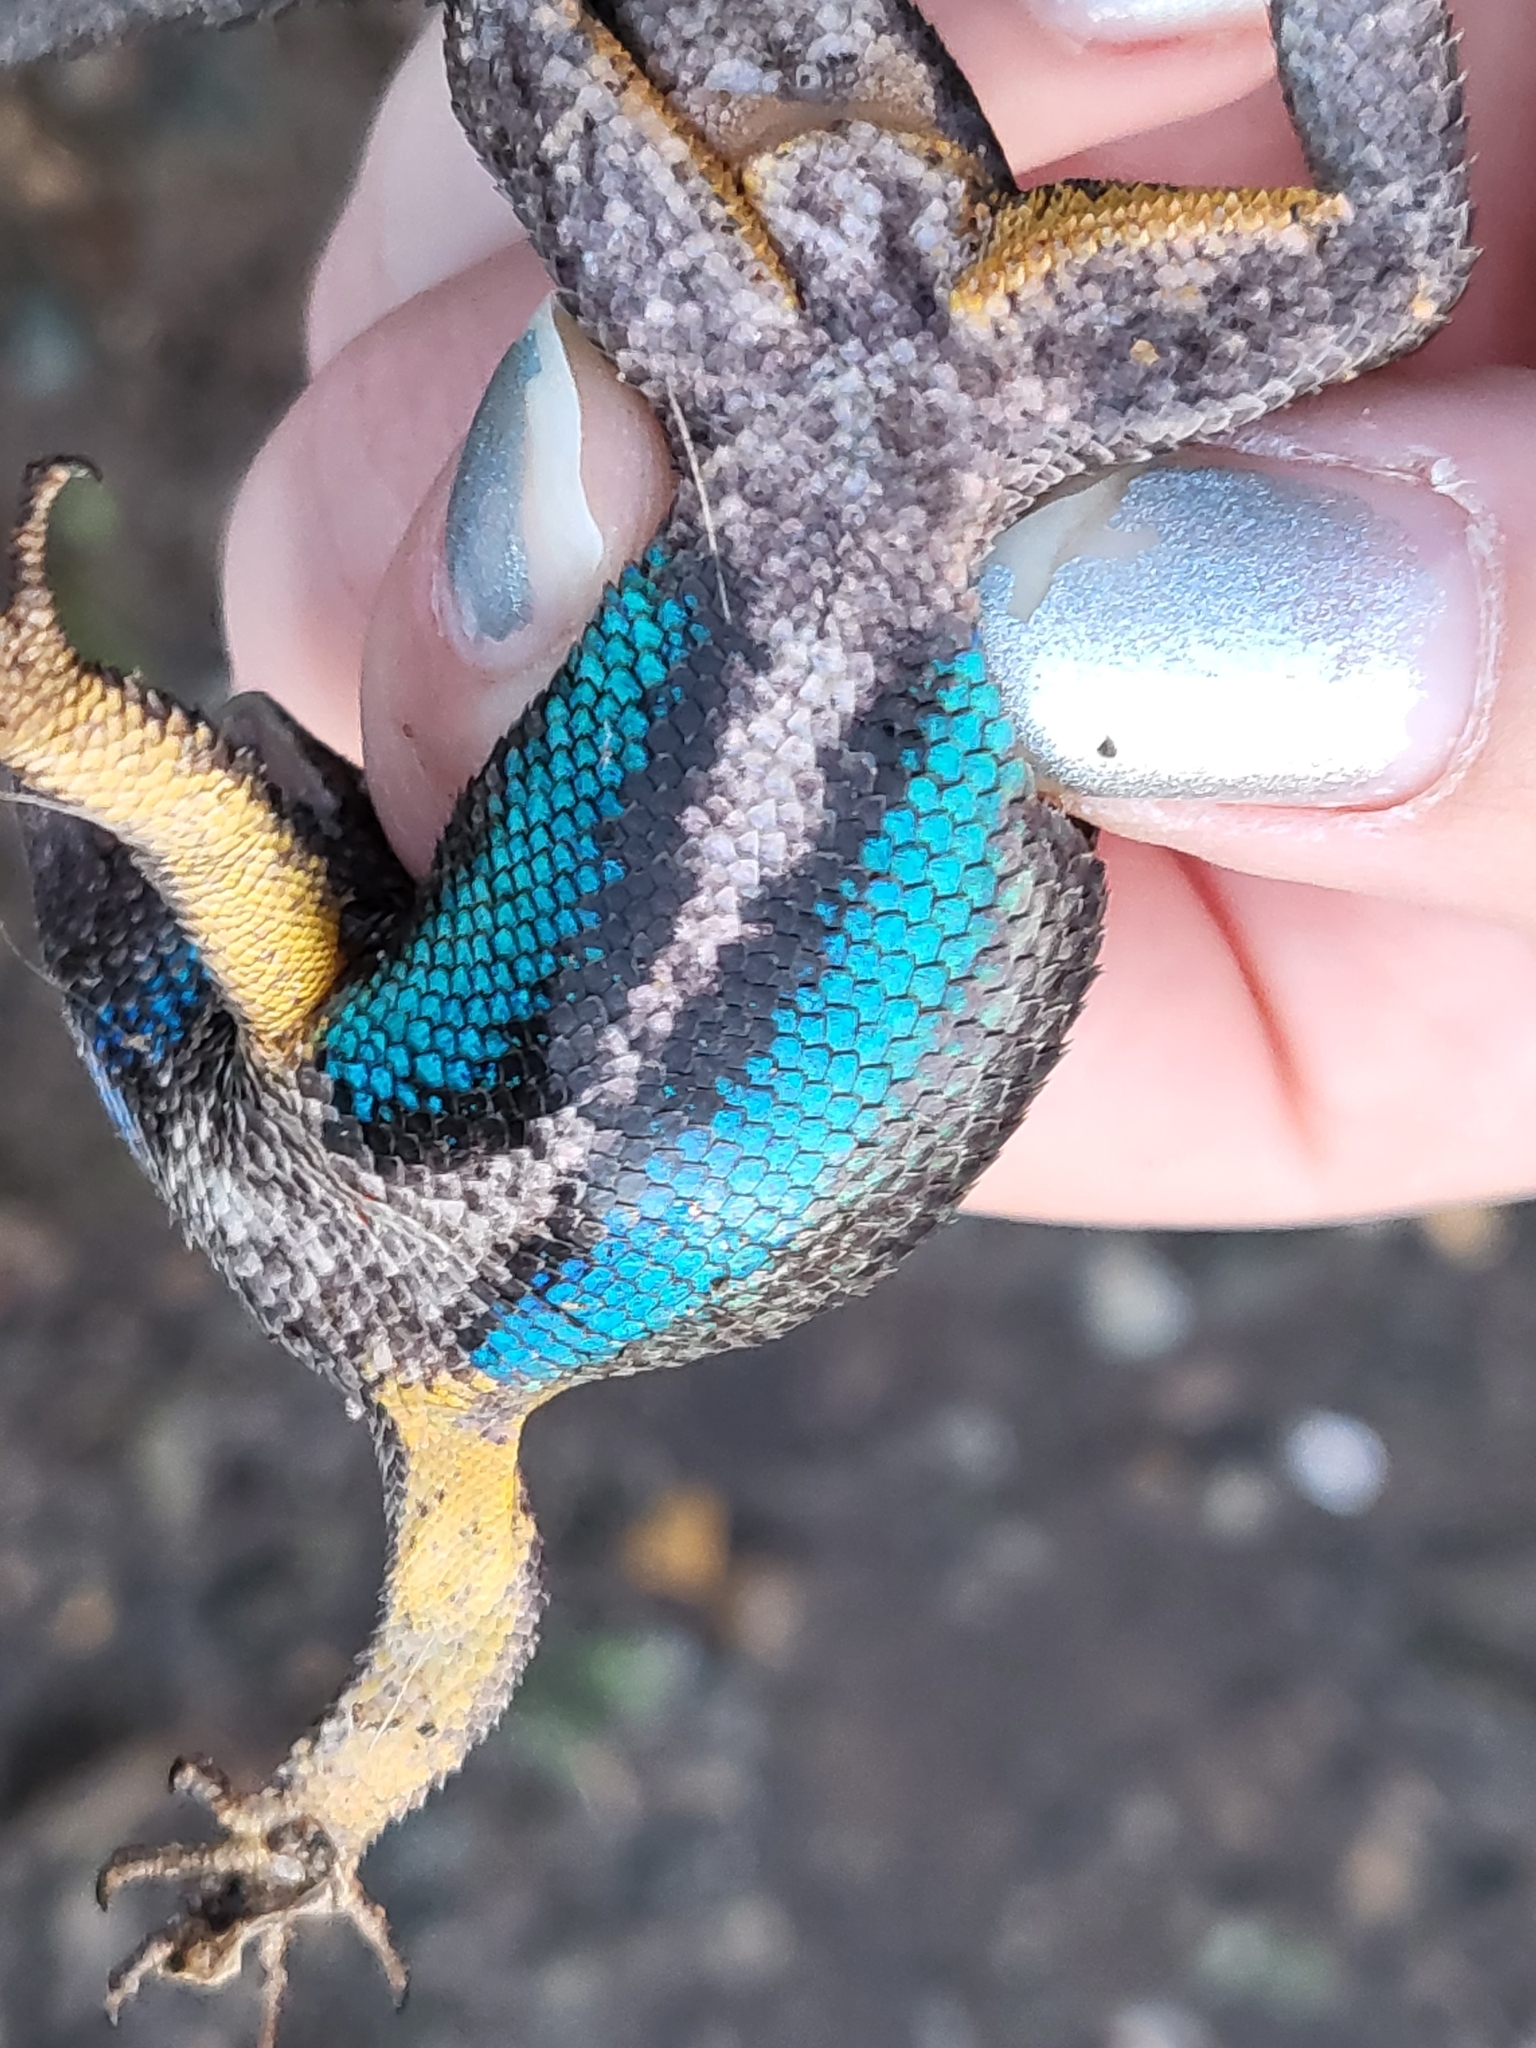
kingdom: Animalia
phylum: Chordata
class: Squamata
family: Phrynosomatidae
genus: Sceloporus
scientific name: Sceloporus occidentalis
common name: Western fence lizard
